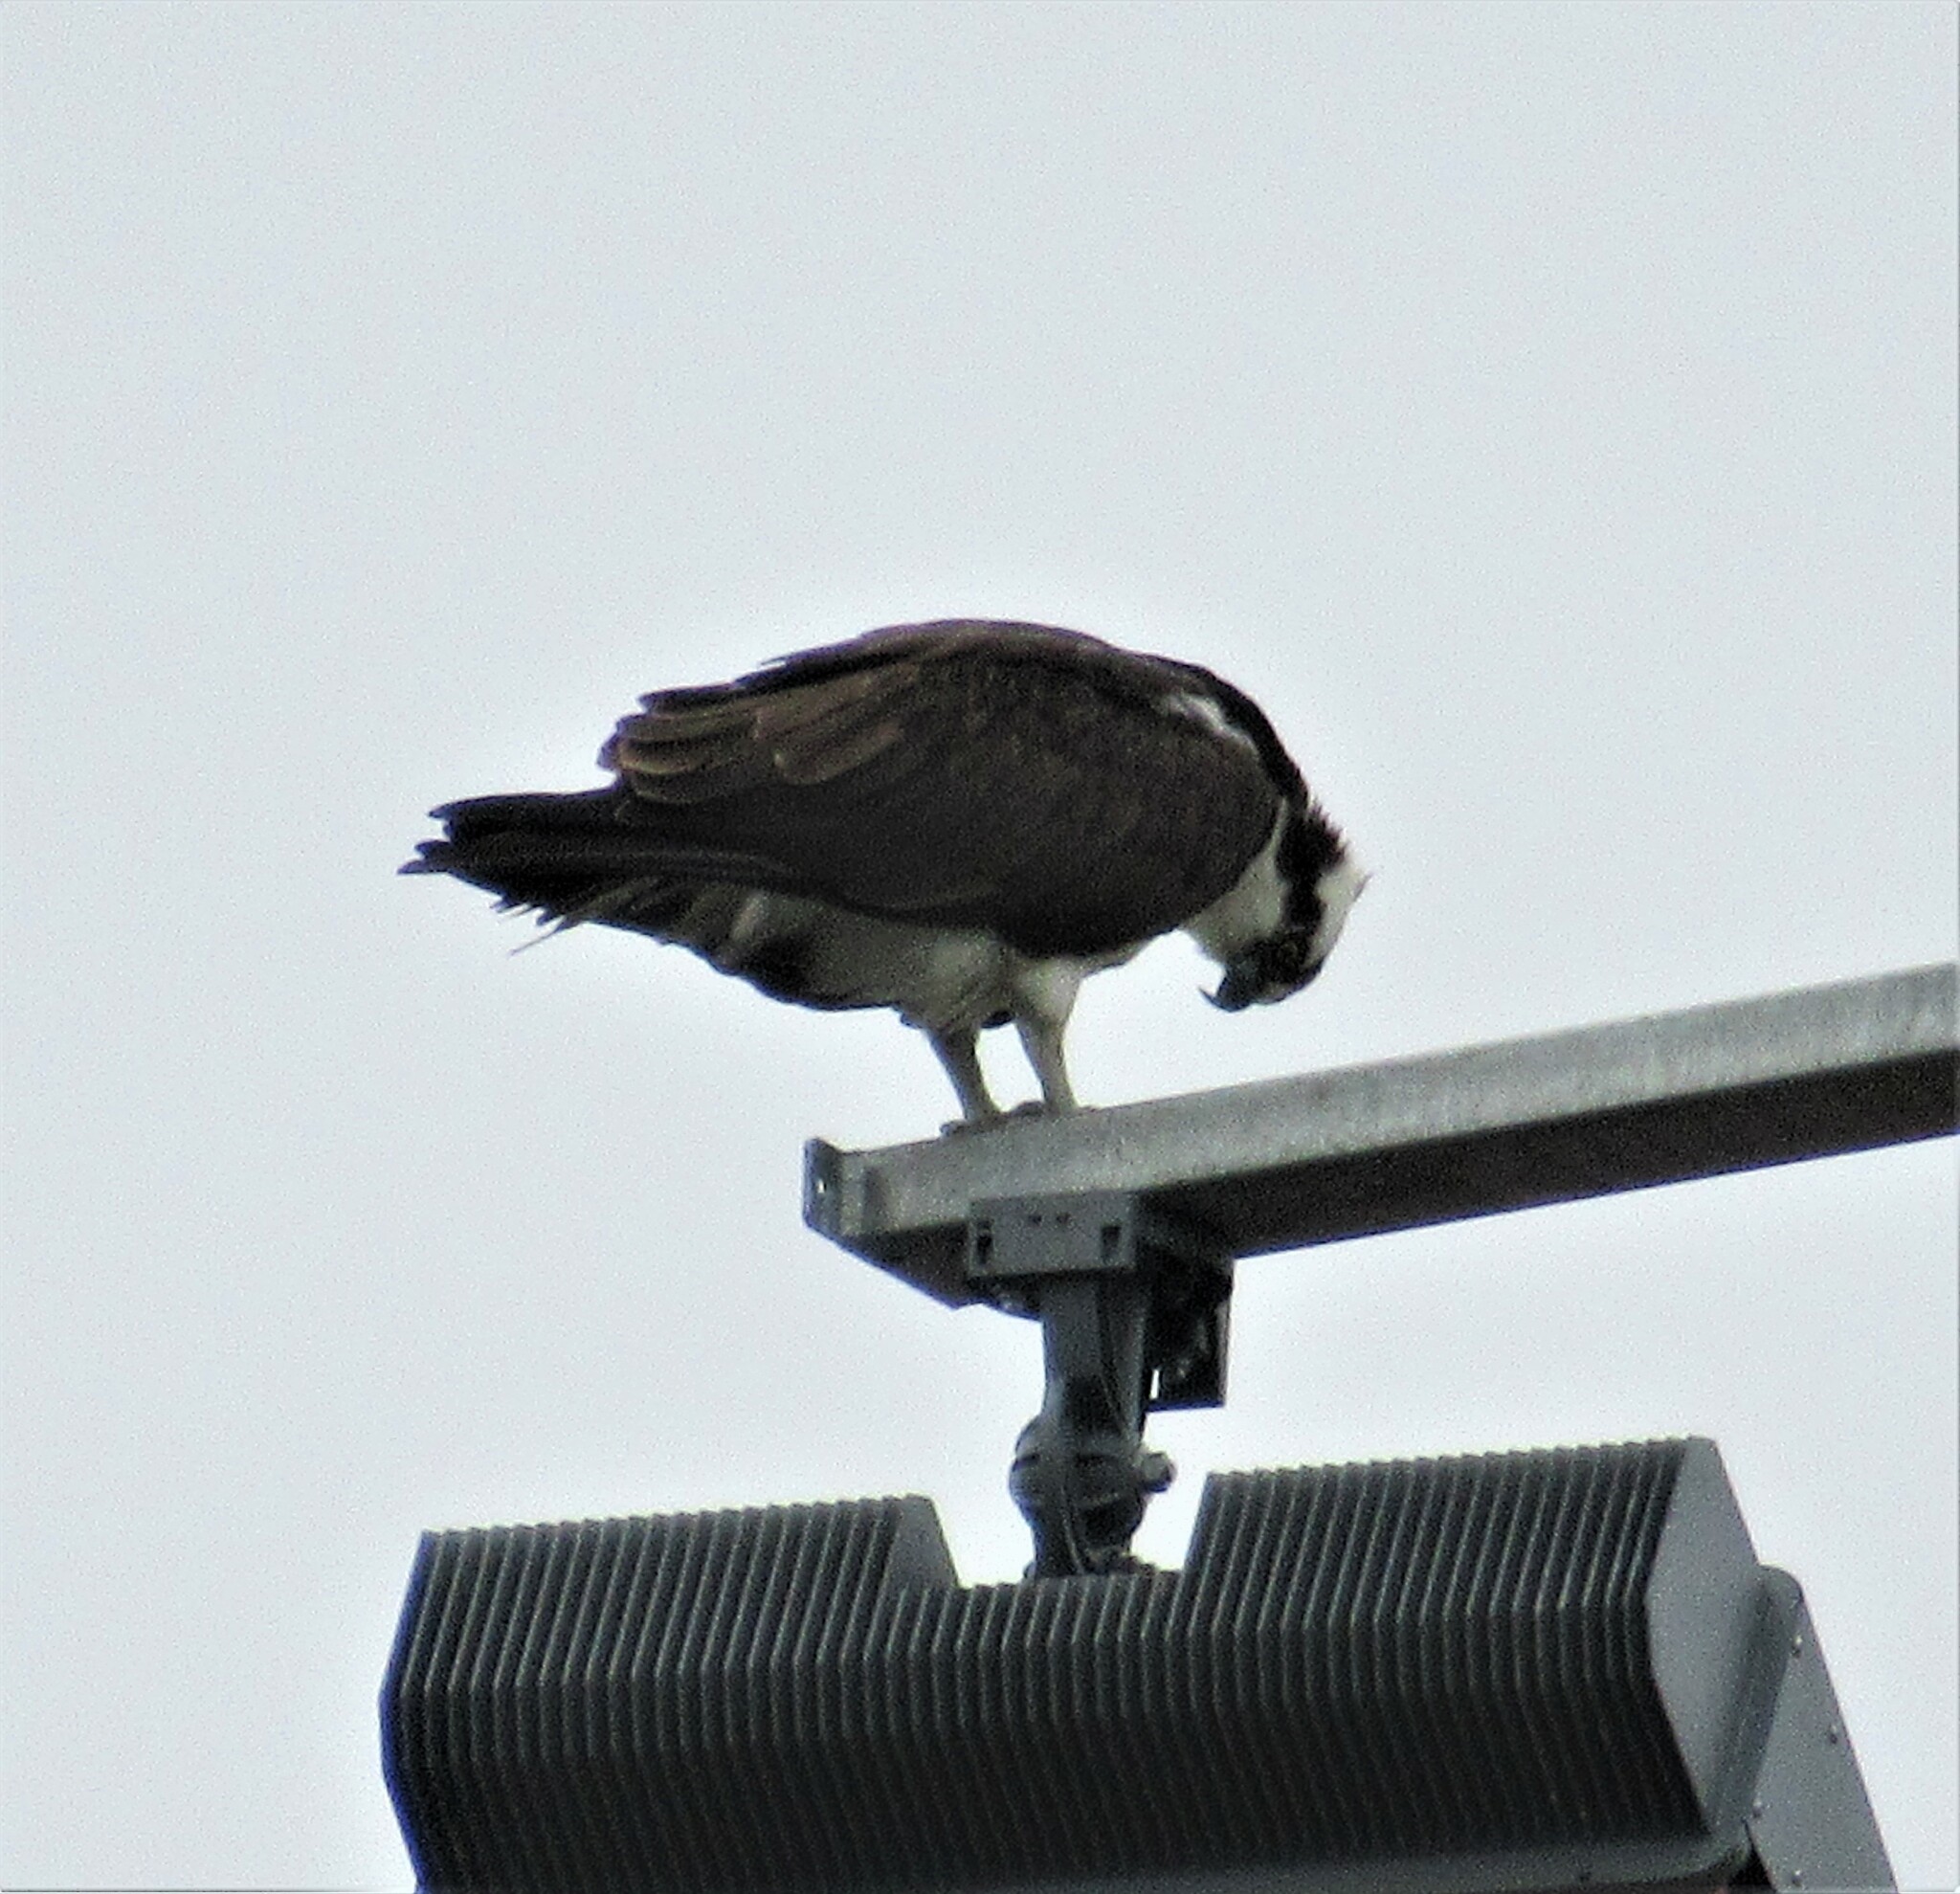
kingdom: Animalia
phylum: Chordata
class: Aves
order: Accipitriformes
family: Pandionidae
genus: Pandion
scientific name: Pandion haliaetus
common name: Osprey
